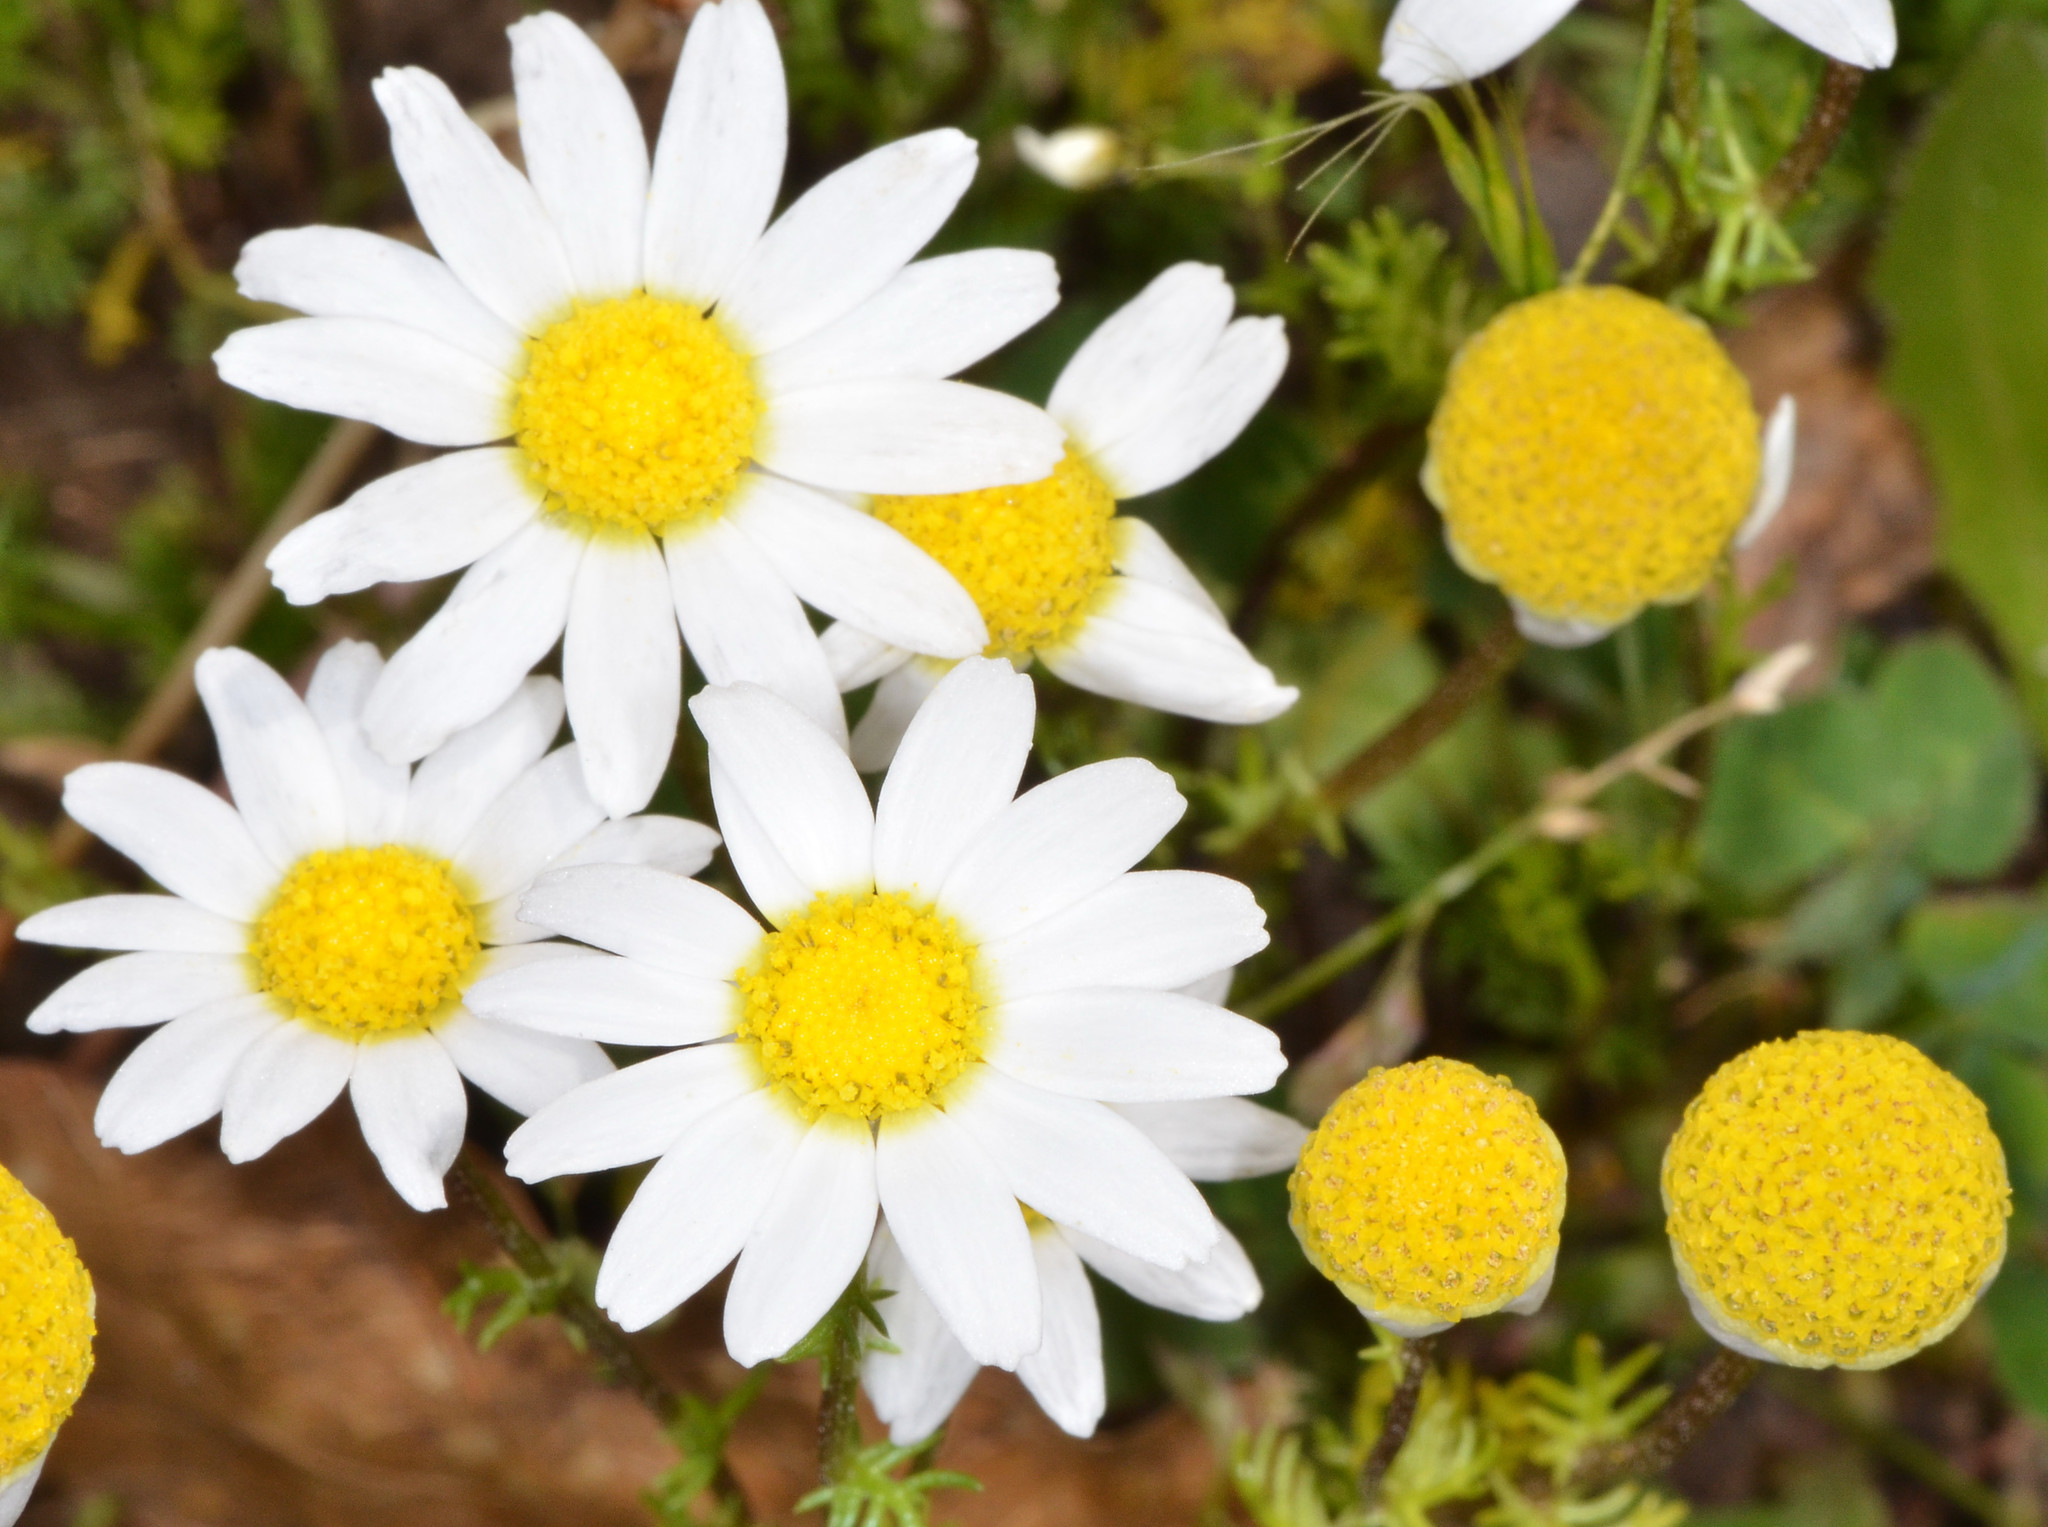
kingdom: Plantae
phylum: Tracheophyta
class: Magnoliopsida
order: Asterales
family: Asteraceae
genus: Anthemis
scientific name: Anthemis cotula
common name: Stinking chamomile
